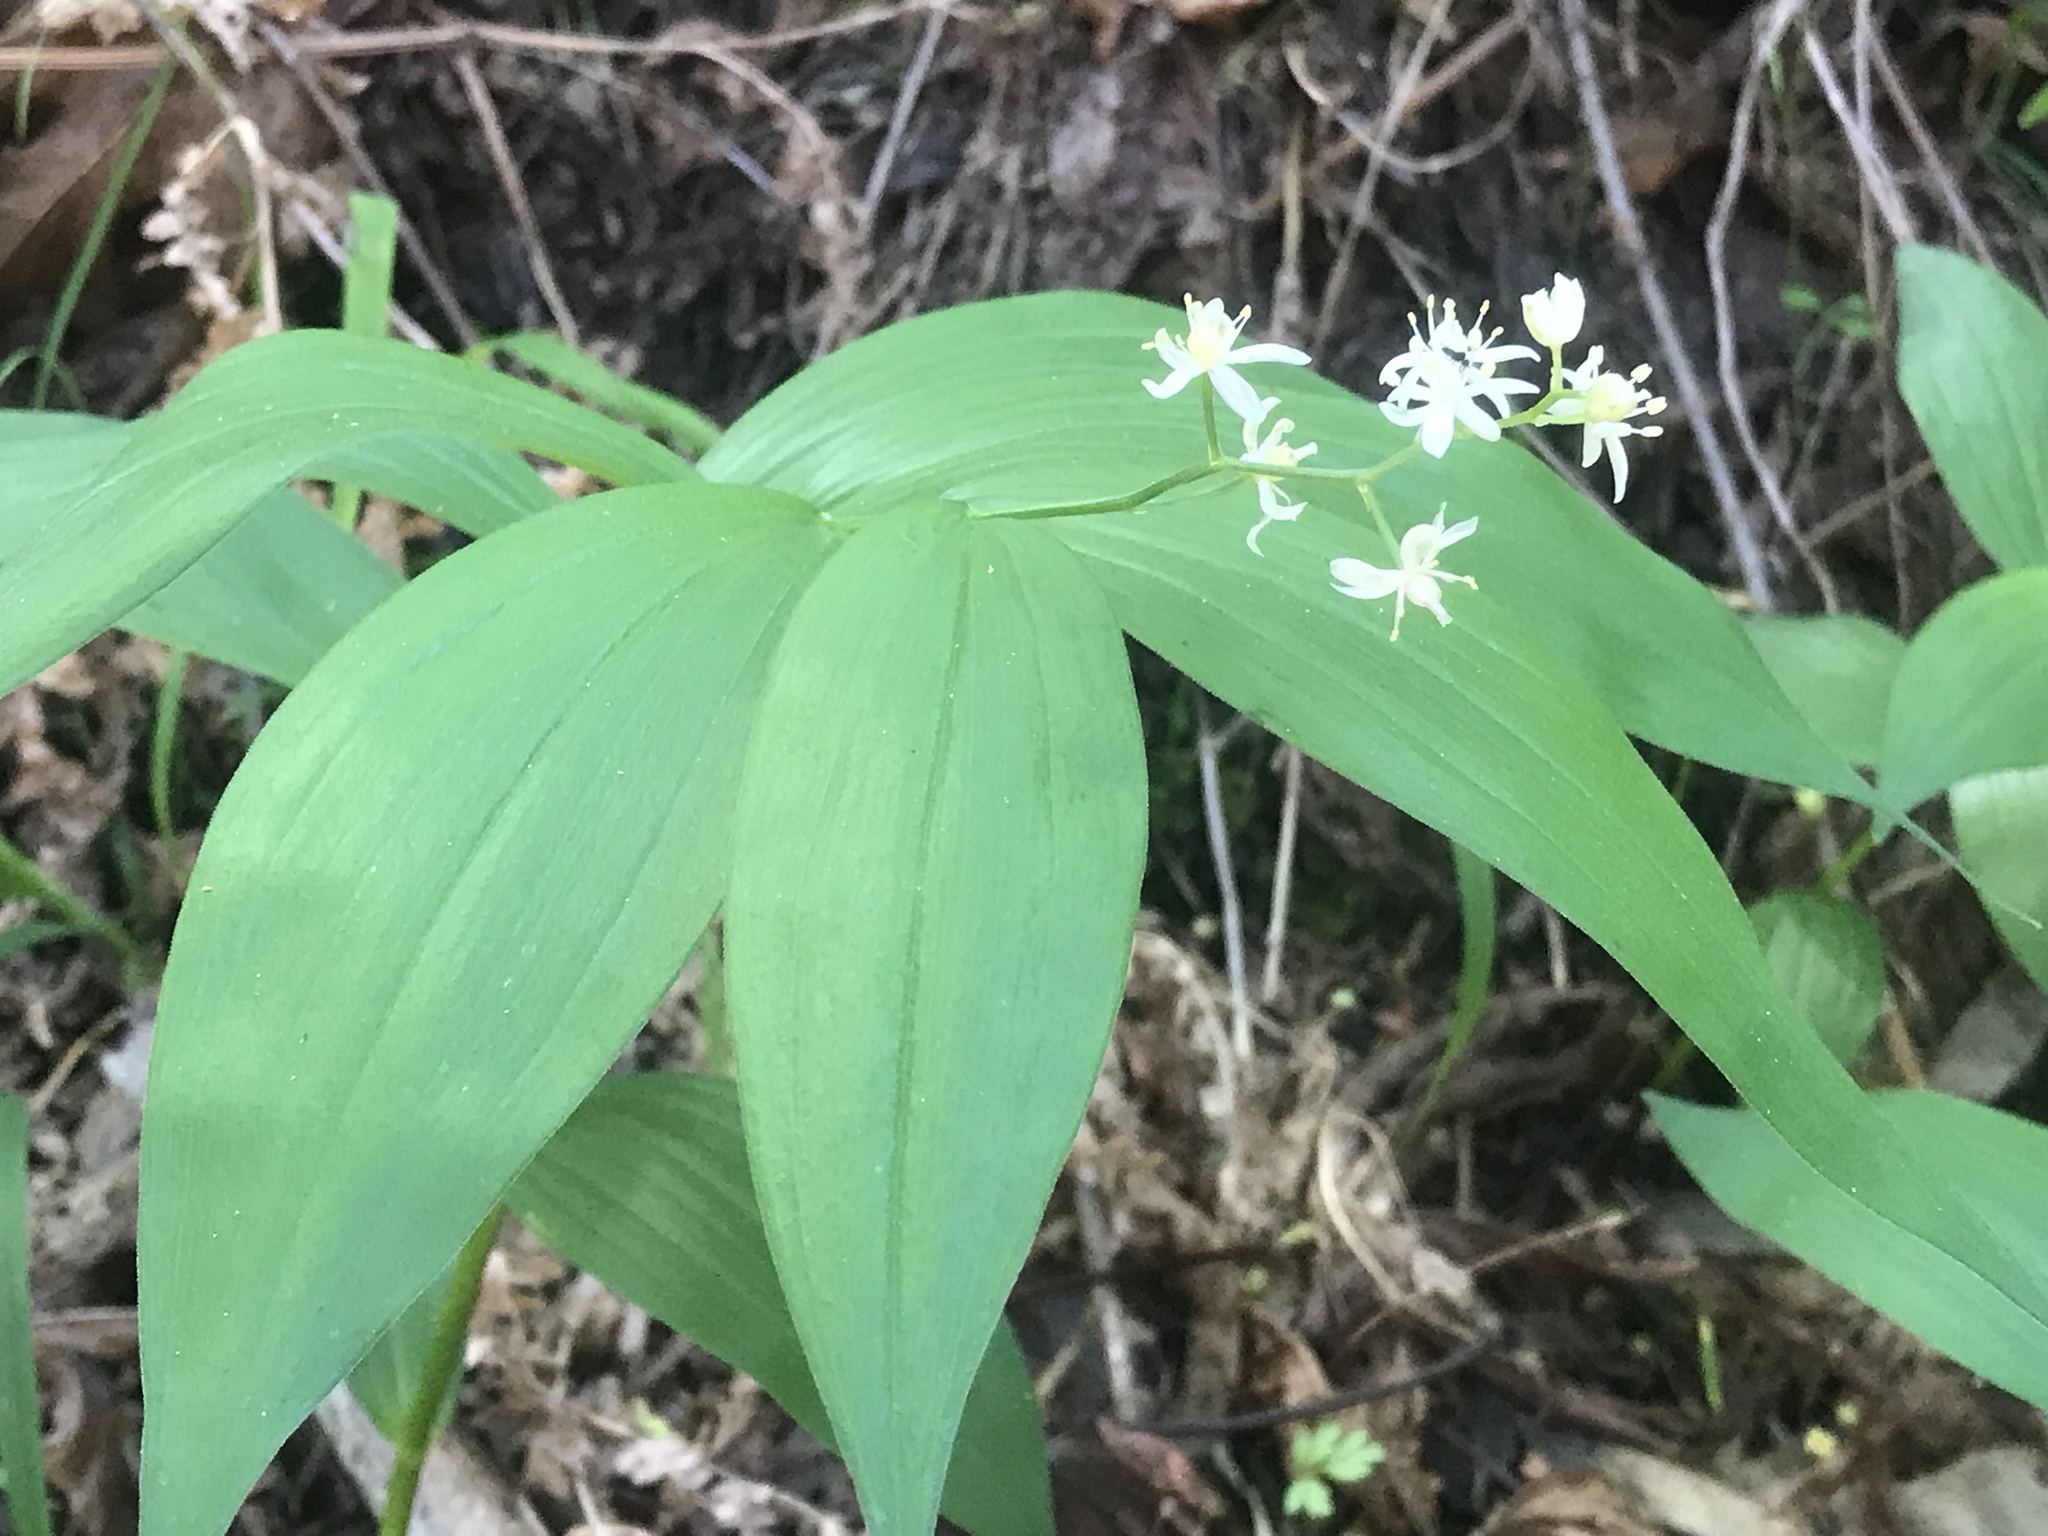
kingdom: Plantae
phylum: Tracheophyta
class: Liliopsida
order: Asparagales
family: Asparagaceae
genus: Maianthemum
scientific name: Maianthemum stellatum
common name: Little false solomon's seal
